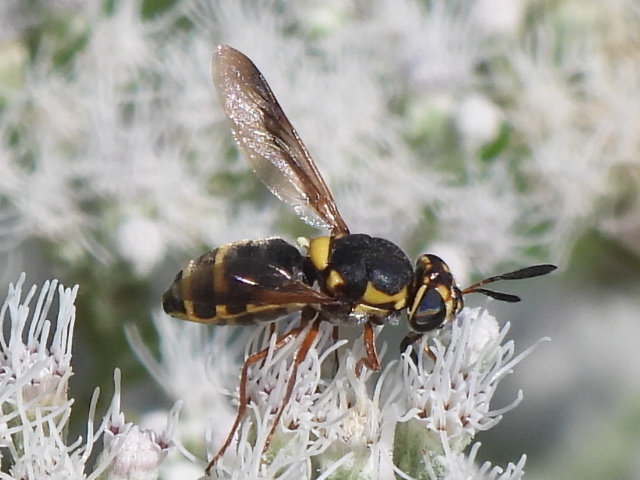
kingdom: Animalia
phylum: Arthropoda
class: Insecta
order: Diptera
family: Stratiomyidae
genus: Hoplitimyia
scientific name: Hoplitimyia constans
